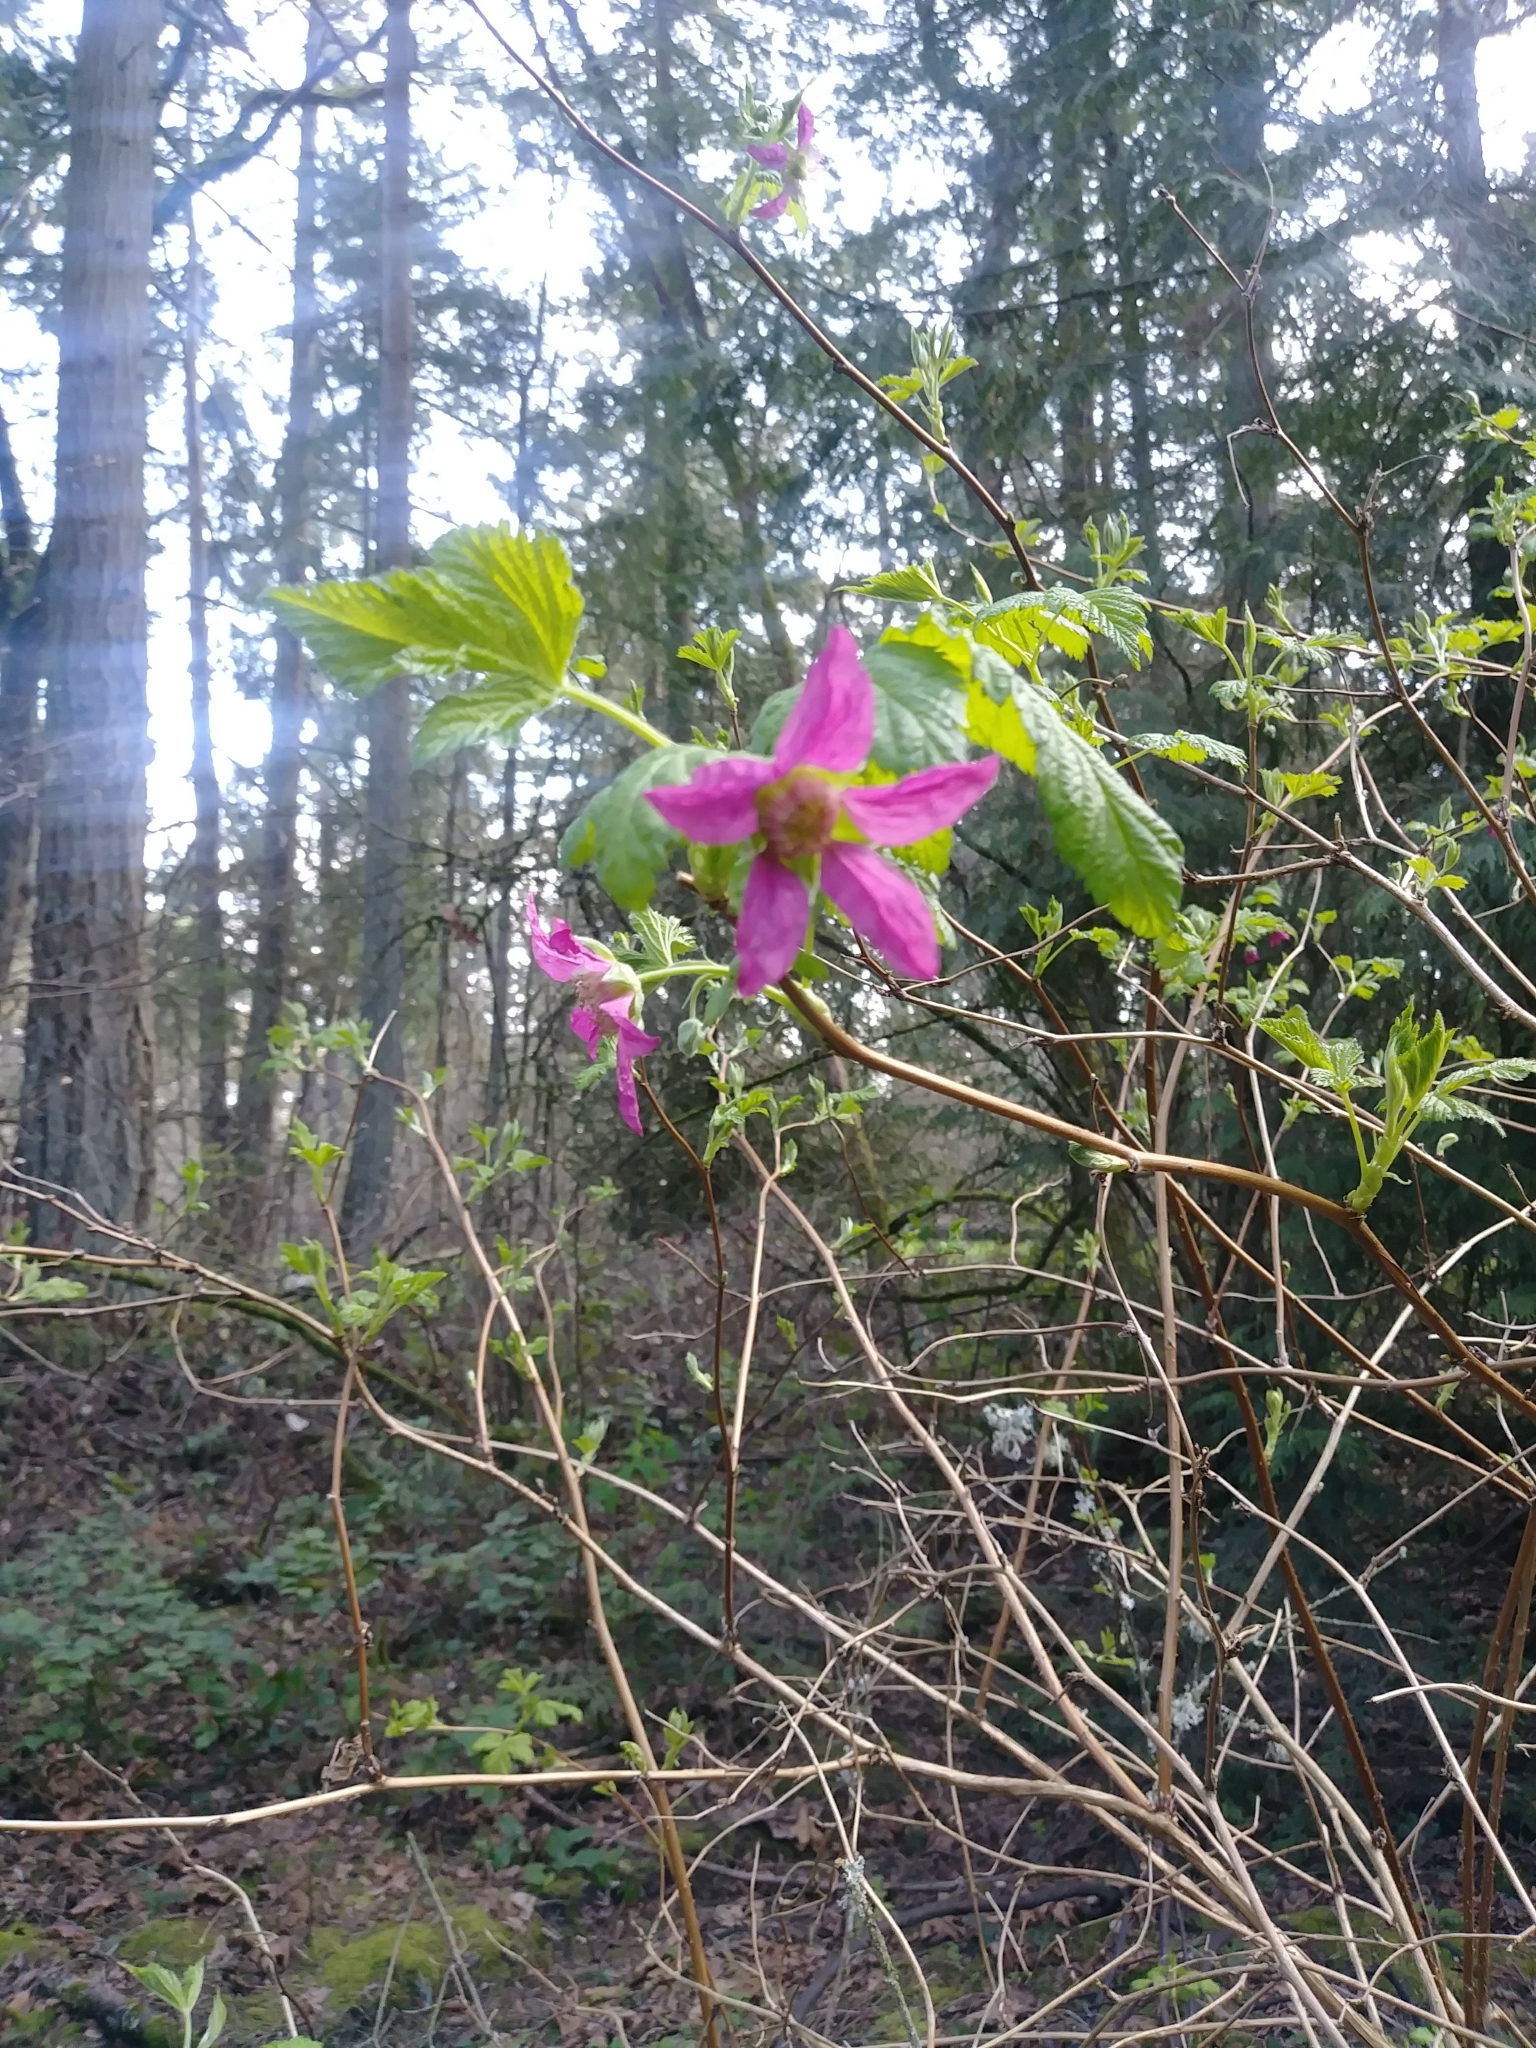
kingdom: Plantae
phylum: Tracheophyta
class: Magnoliopsida
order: Rosales
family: Rosaceae
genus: Rubus
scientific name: Rubus spectabilis
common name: Salmonberry
